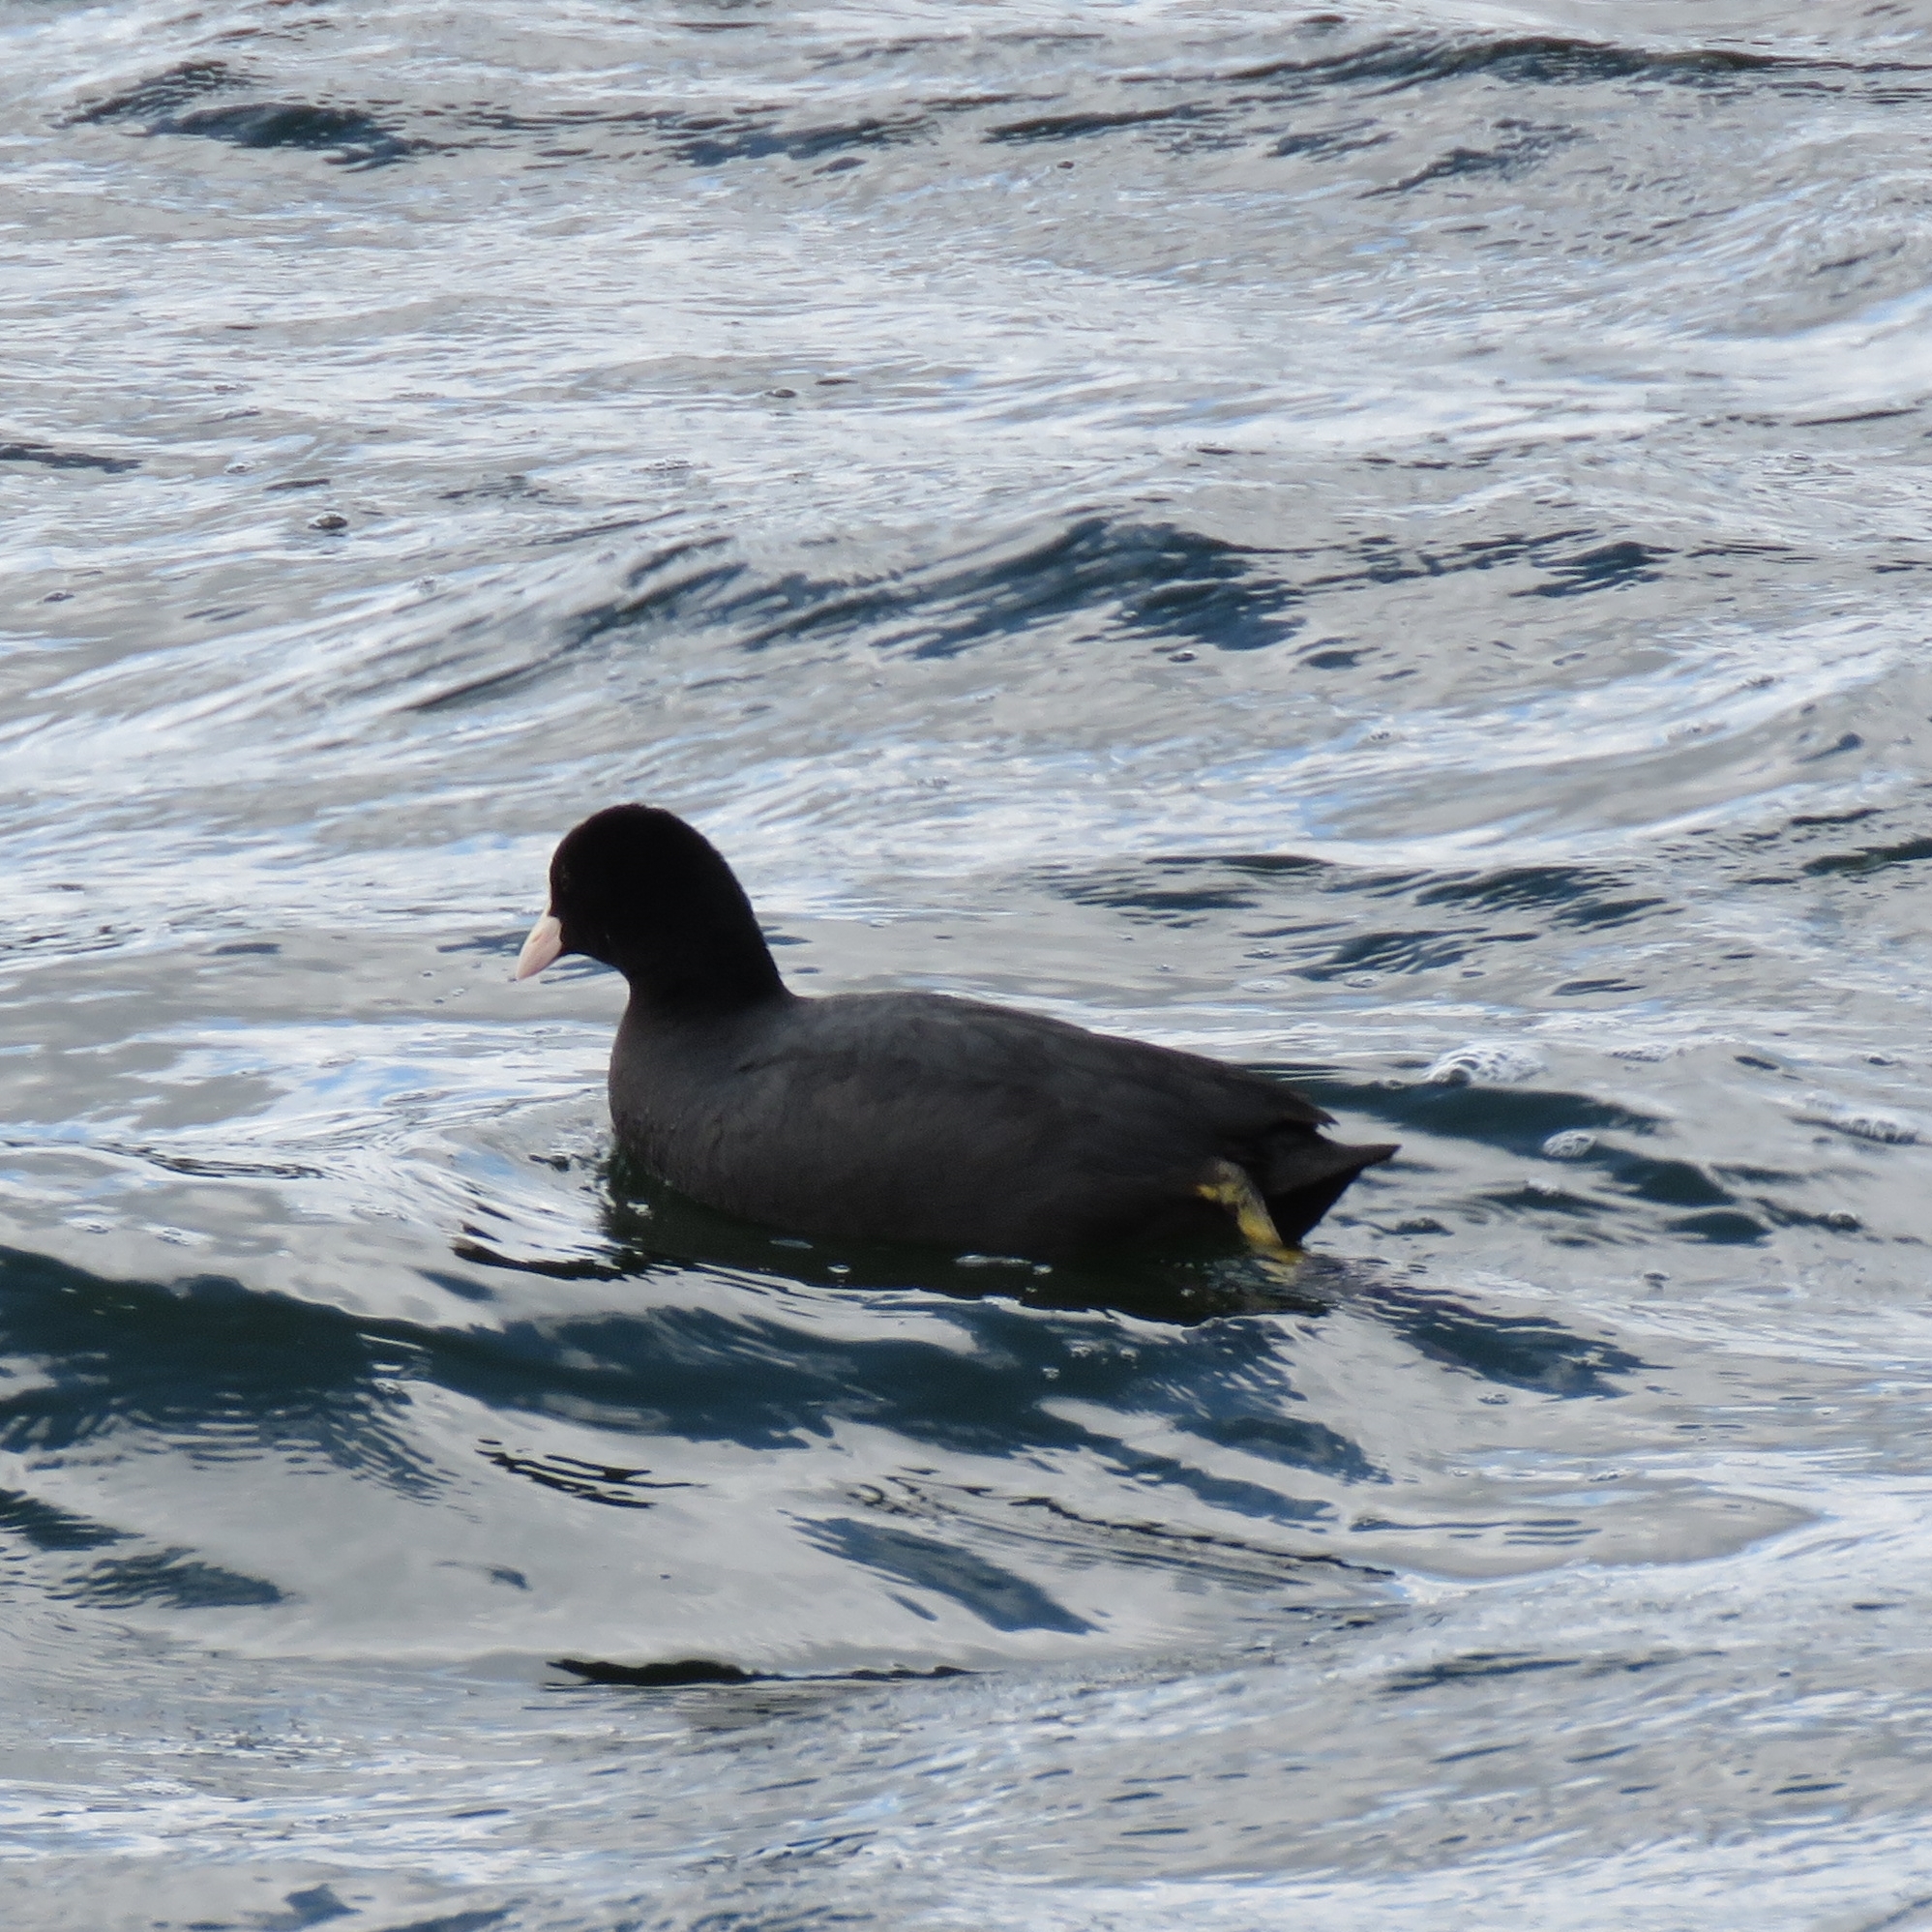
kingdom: Animalia
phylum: Chordata
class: Aves
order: Gruiformes
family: Rallidae
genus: Fulica
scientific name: Fulica atra
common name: Eurasian coot
